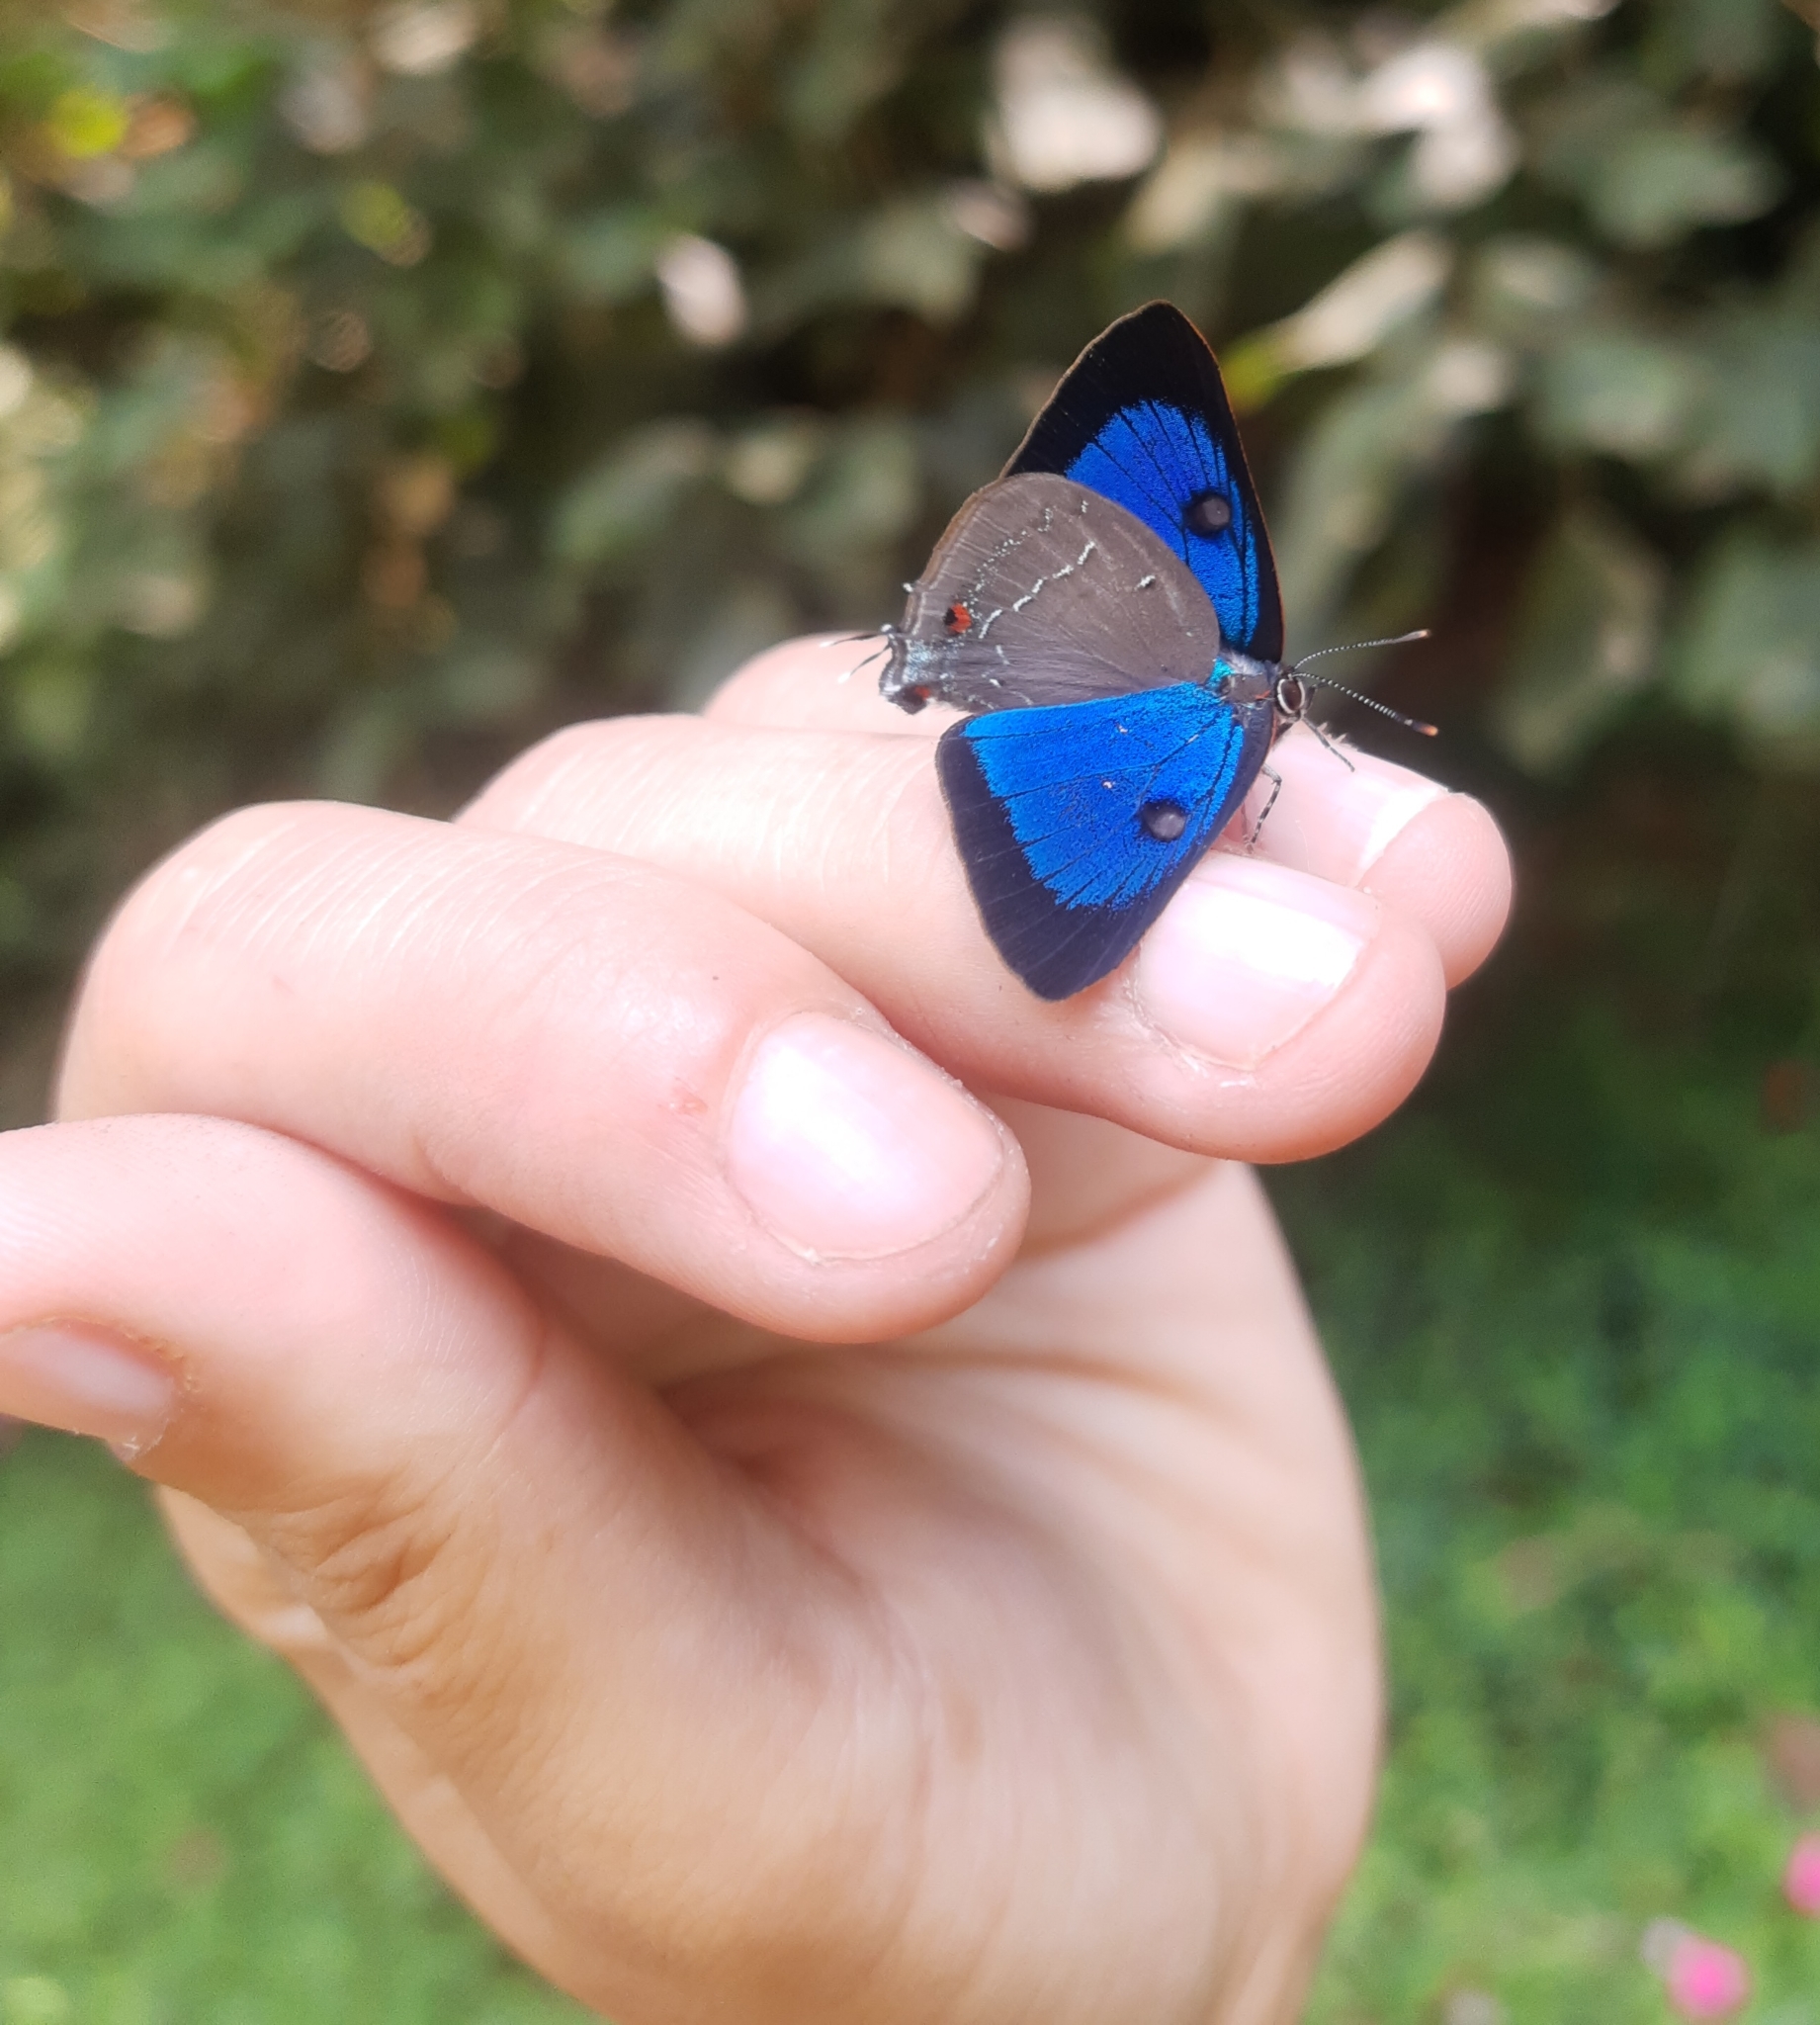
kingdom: Animalia
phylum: Arthropoda
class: Insecta
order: Lepidoptera
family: Lycaenidae
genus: Parrhasius
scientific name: Parrhasius orgia
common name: Variable hairstreak
